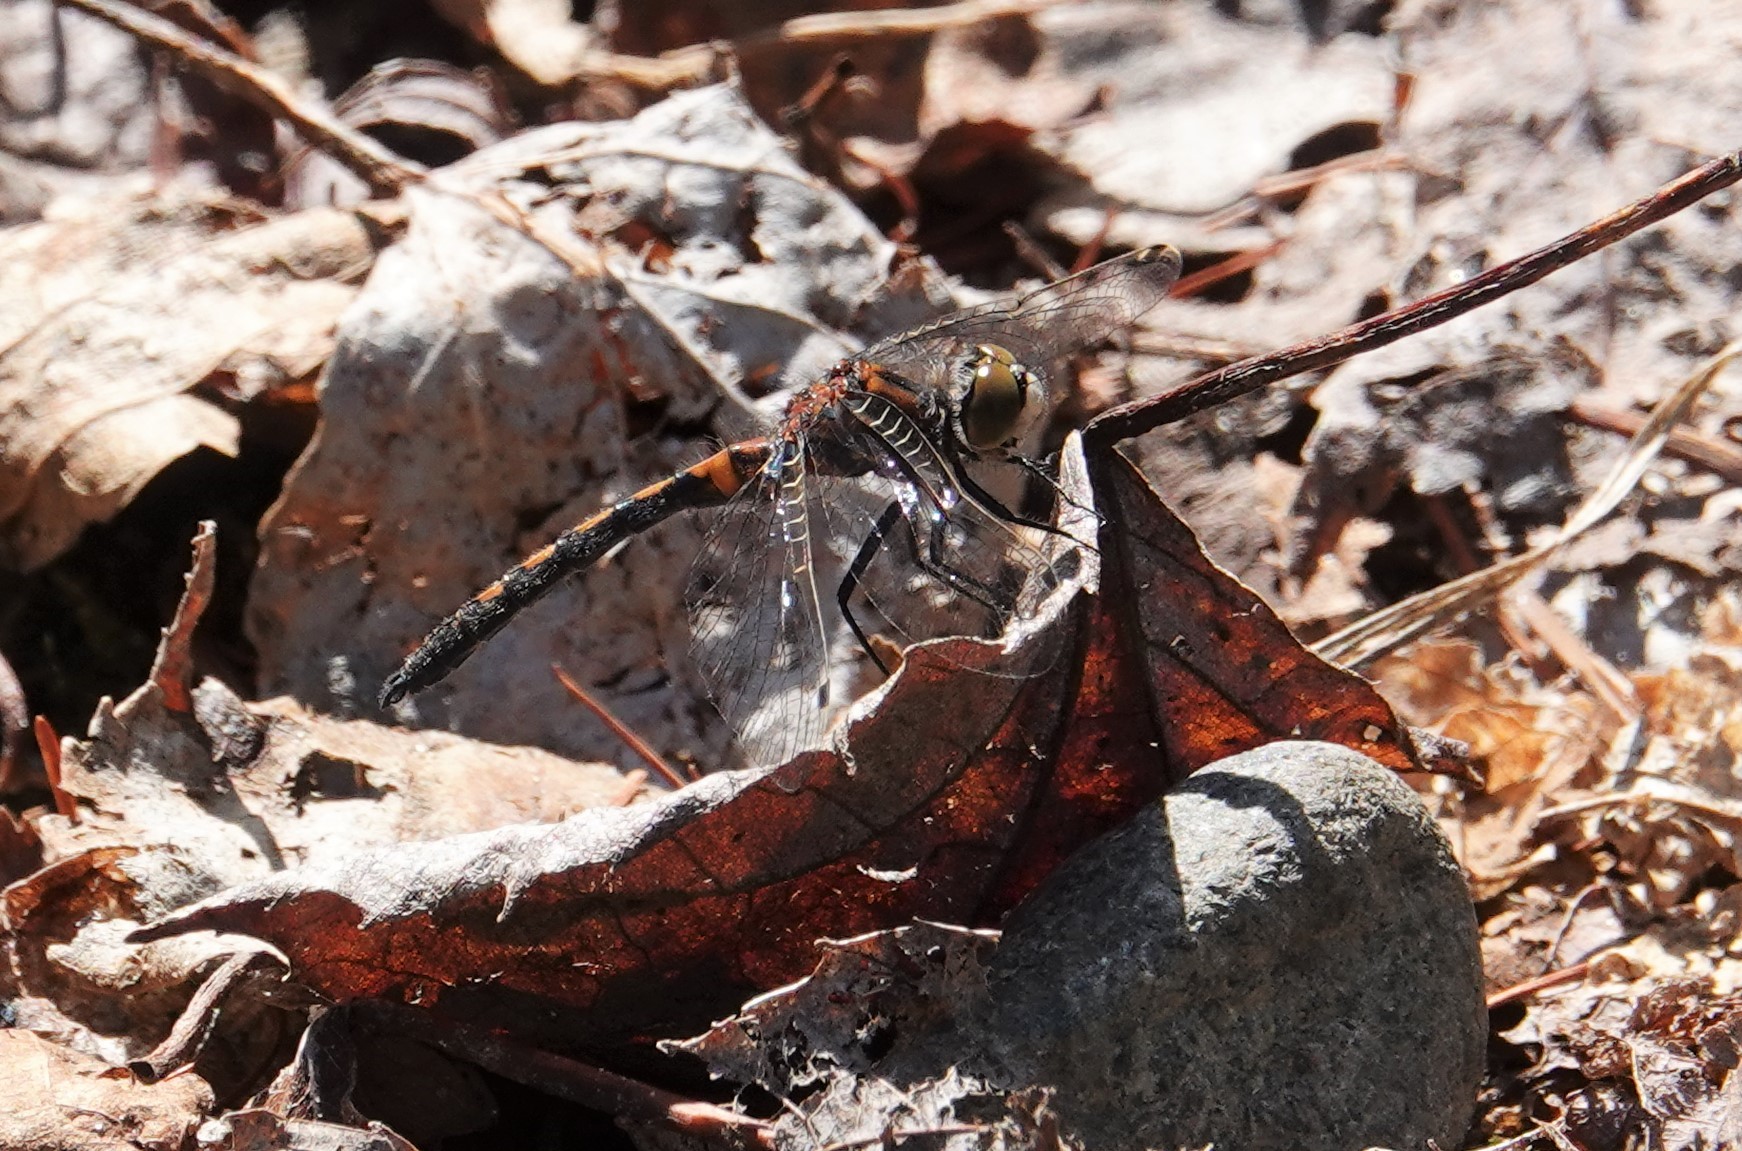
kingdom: Animalia
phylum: Arthropoda
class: Insecta
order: Odonata
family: Libellulidae
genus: Leucorrhinia
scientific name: Leucorrhinia hudsonica
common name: Hudsonian whiteface
